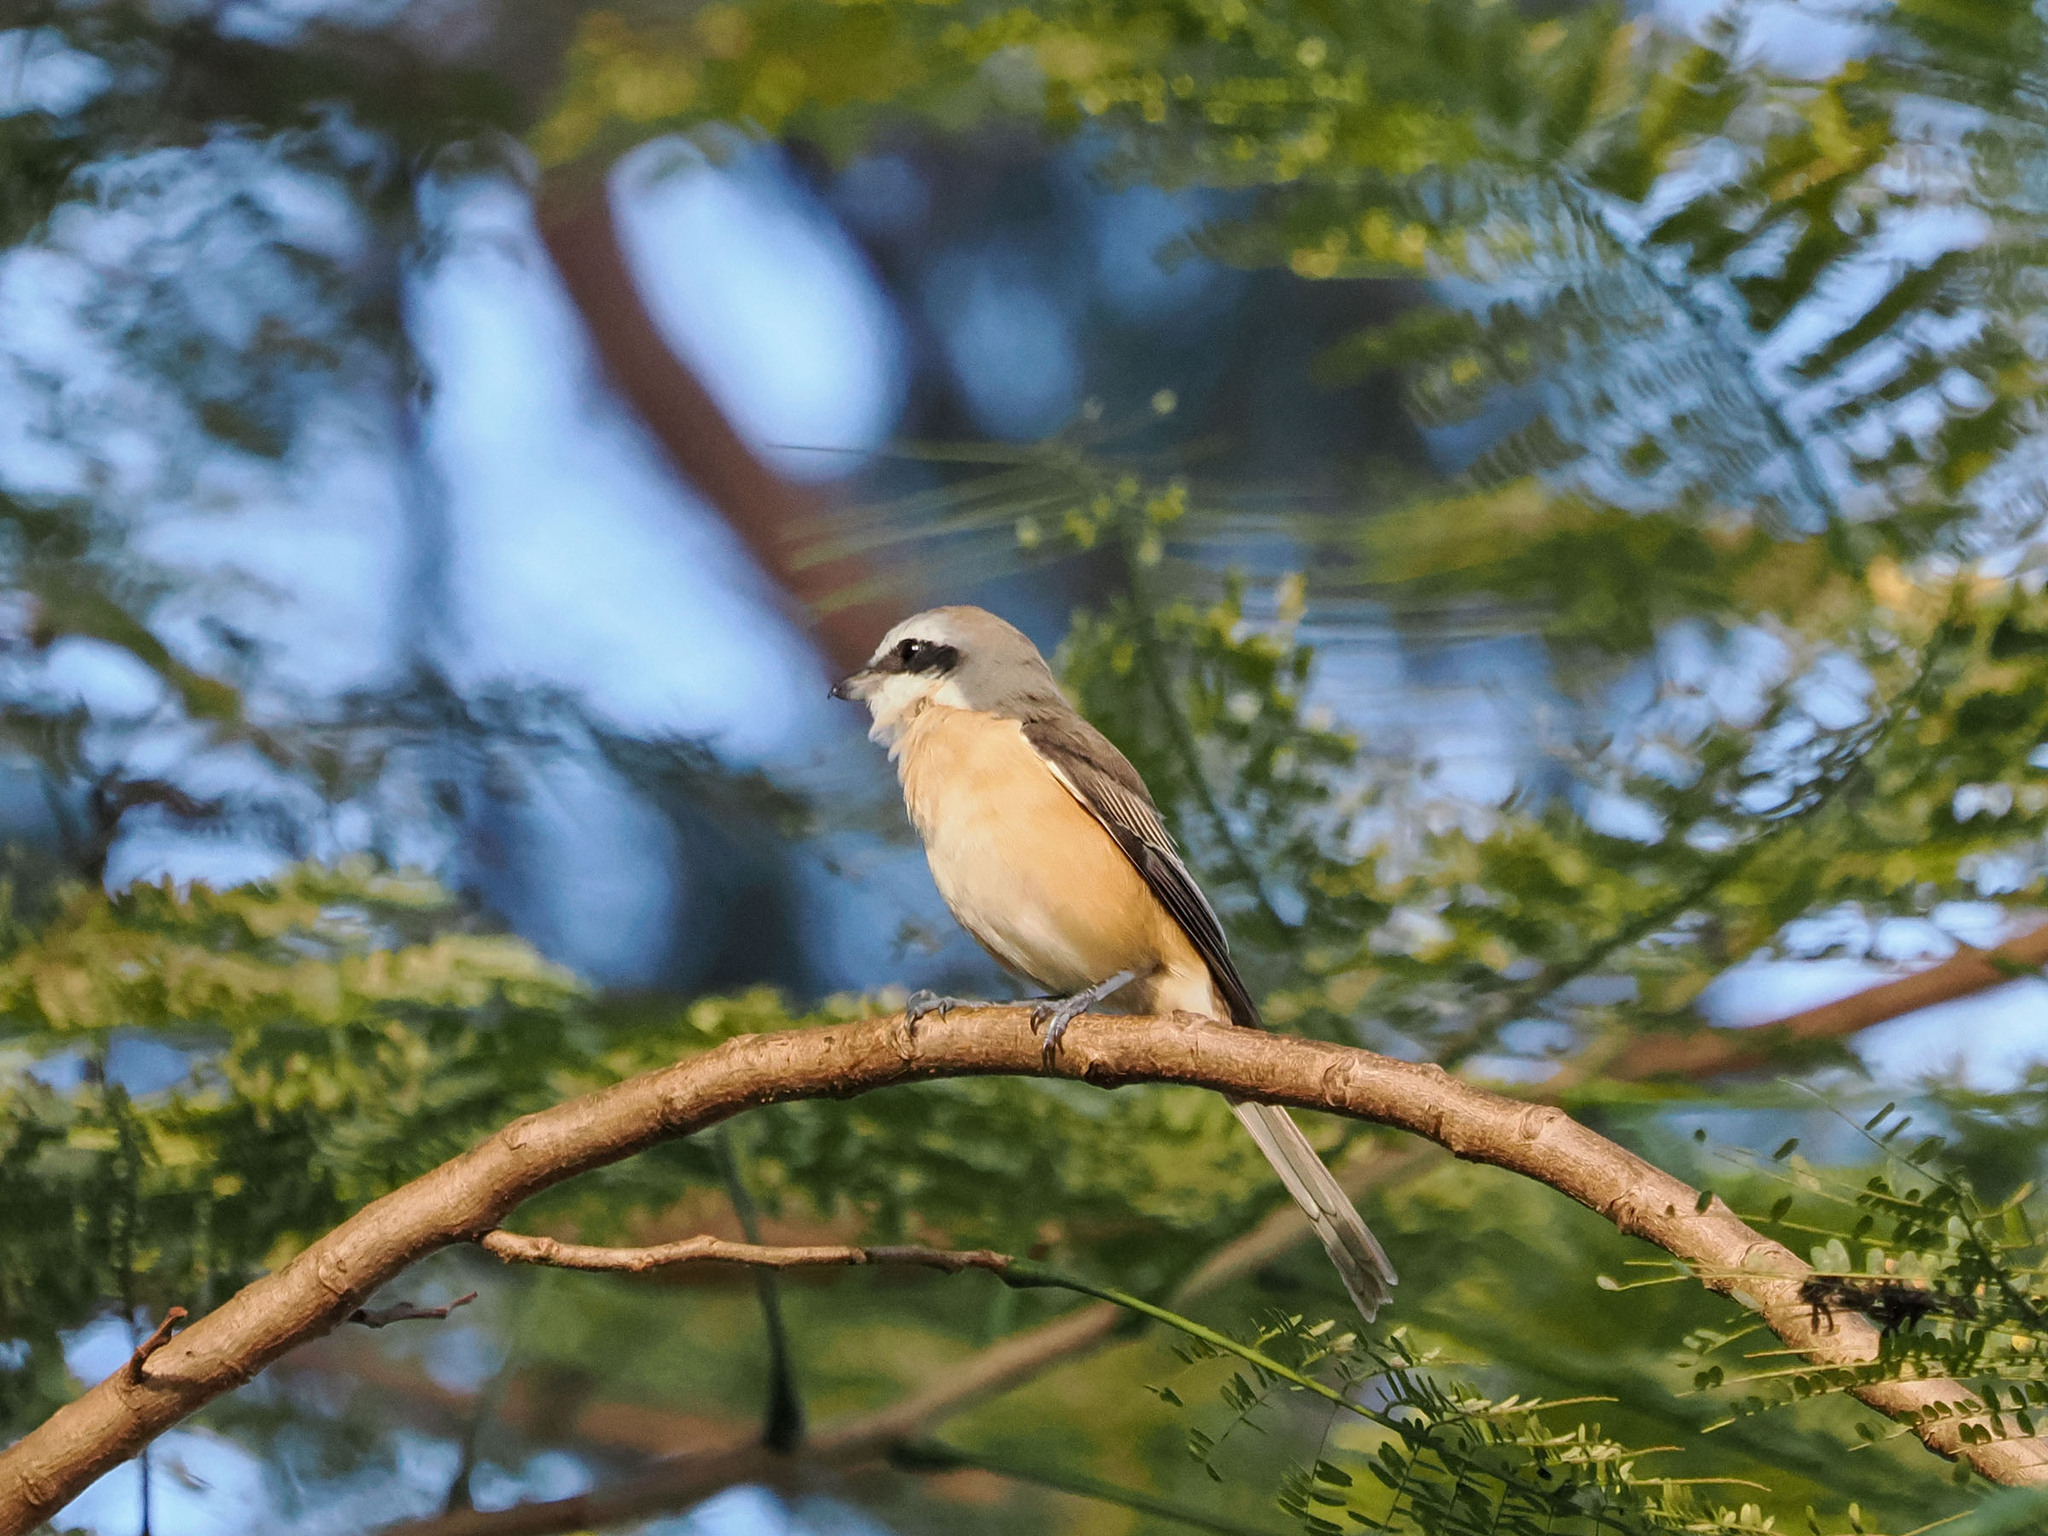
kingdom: Animalia
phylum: Chordata
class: Aves
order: Passeriformes
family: Laniidae
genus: Lanius
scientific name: Lanius cristatus
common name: Brown shrike
